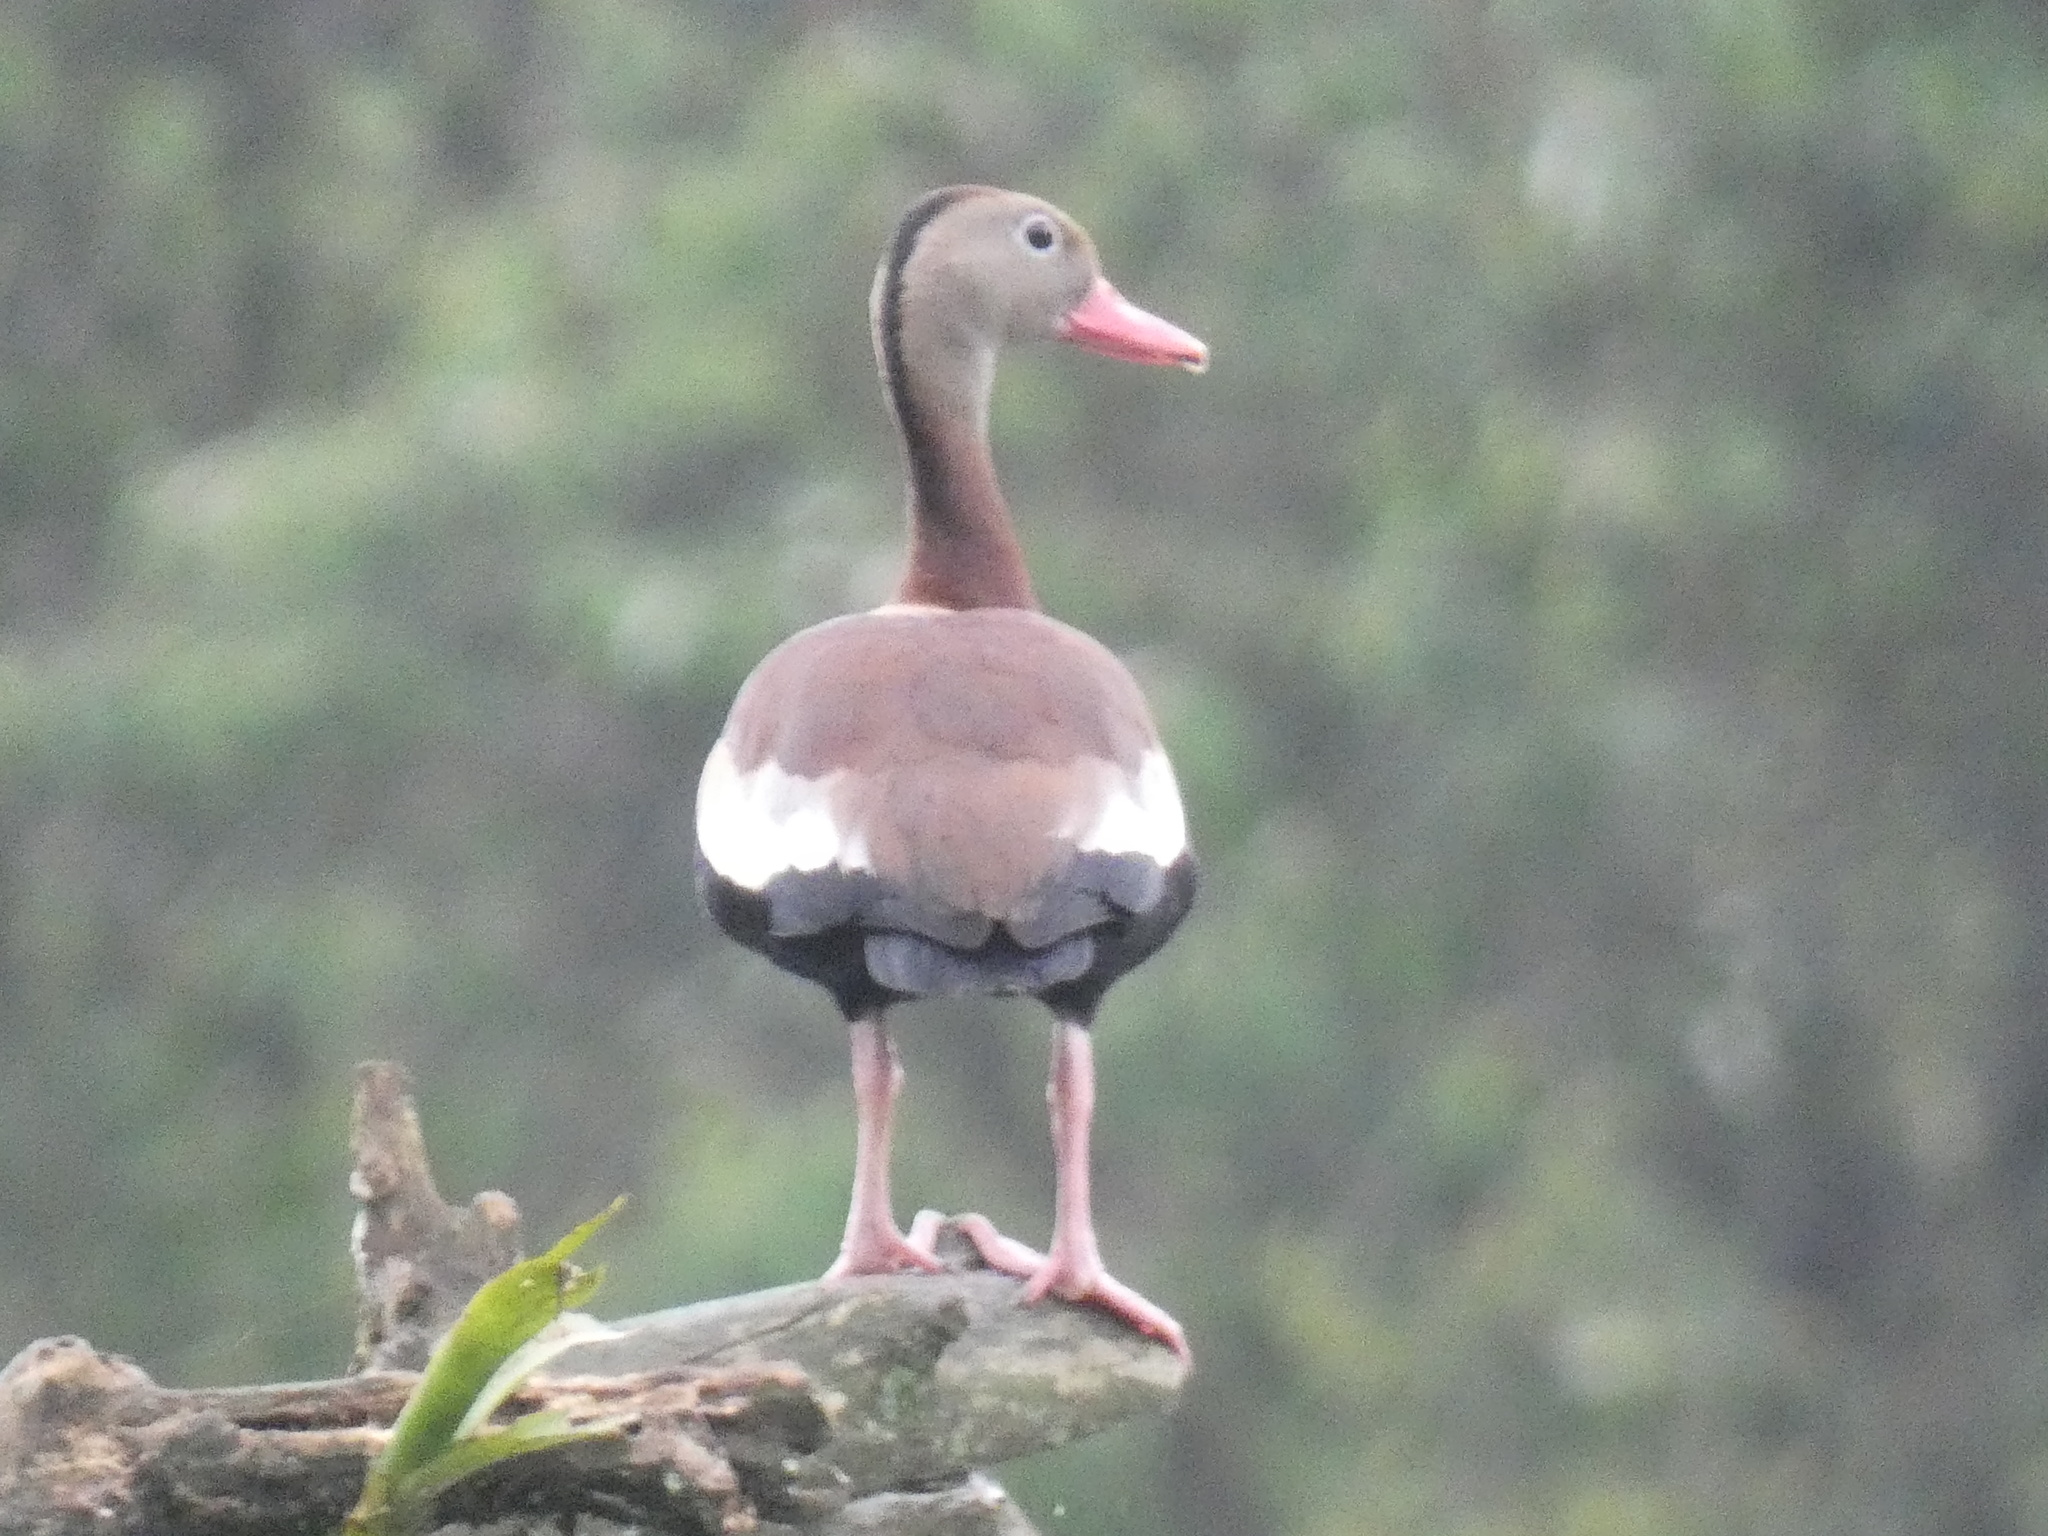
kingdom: Animalia
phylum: Chordata
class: Aves
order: Anseriformes
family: Anatidae
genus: Dendrocygna
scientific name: Dendrocygna autumnalis
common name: Black-bellied whistling duck
